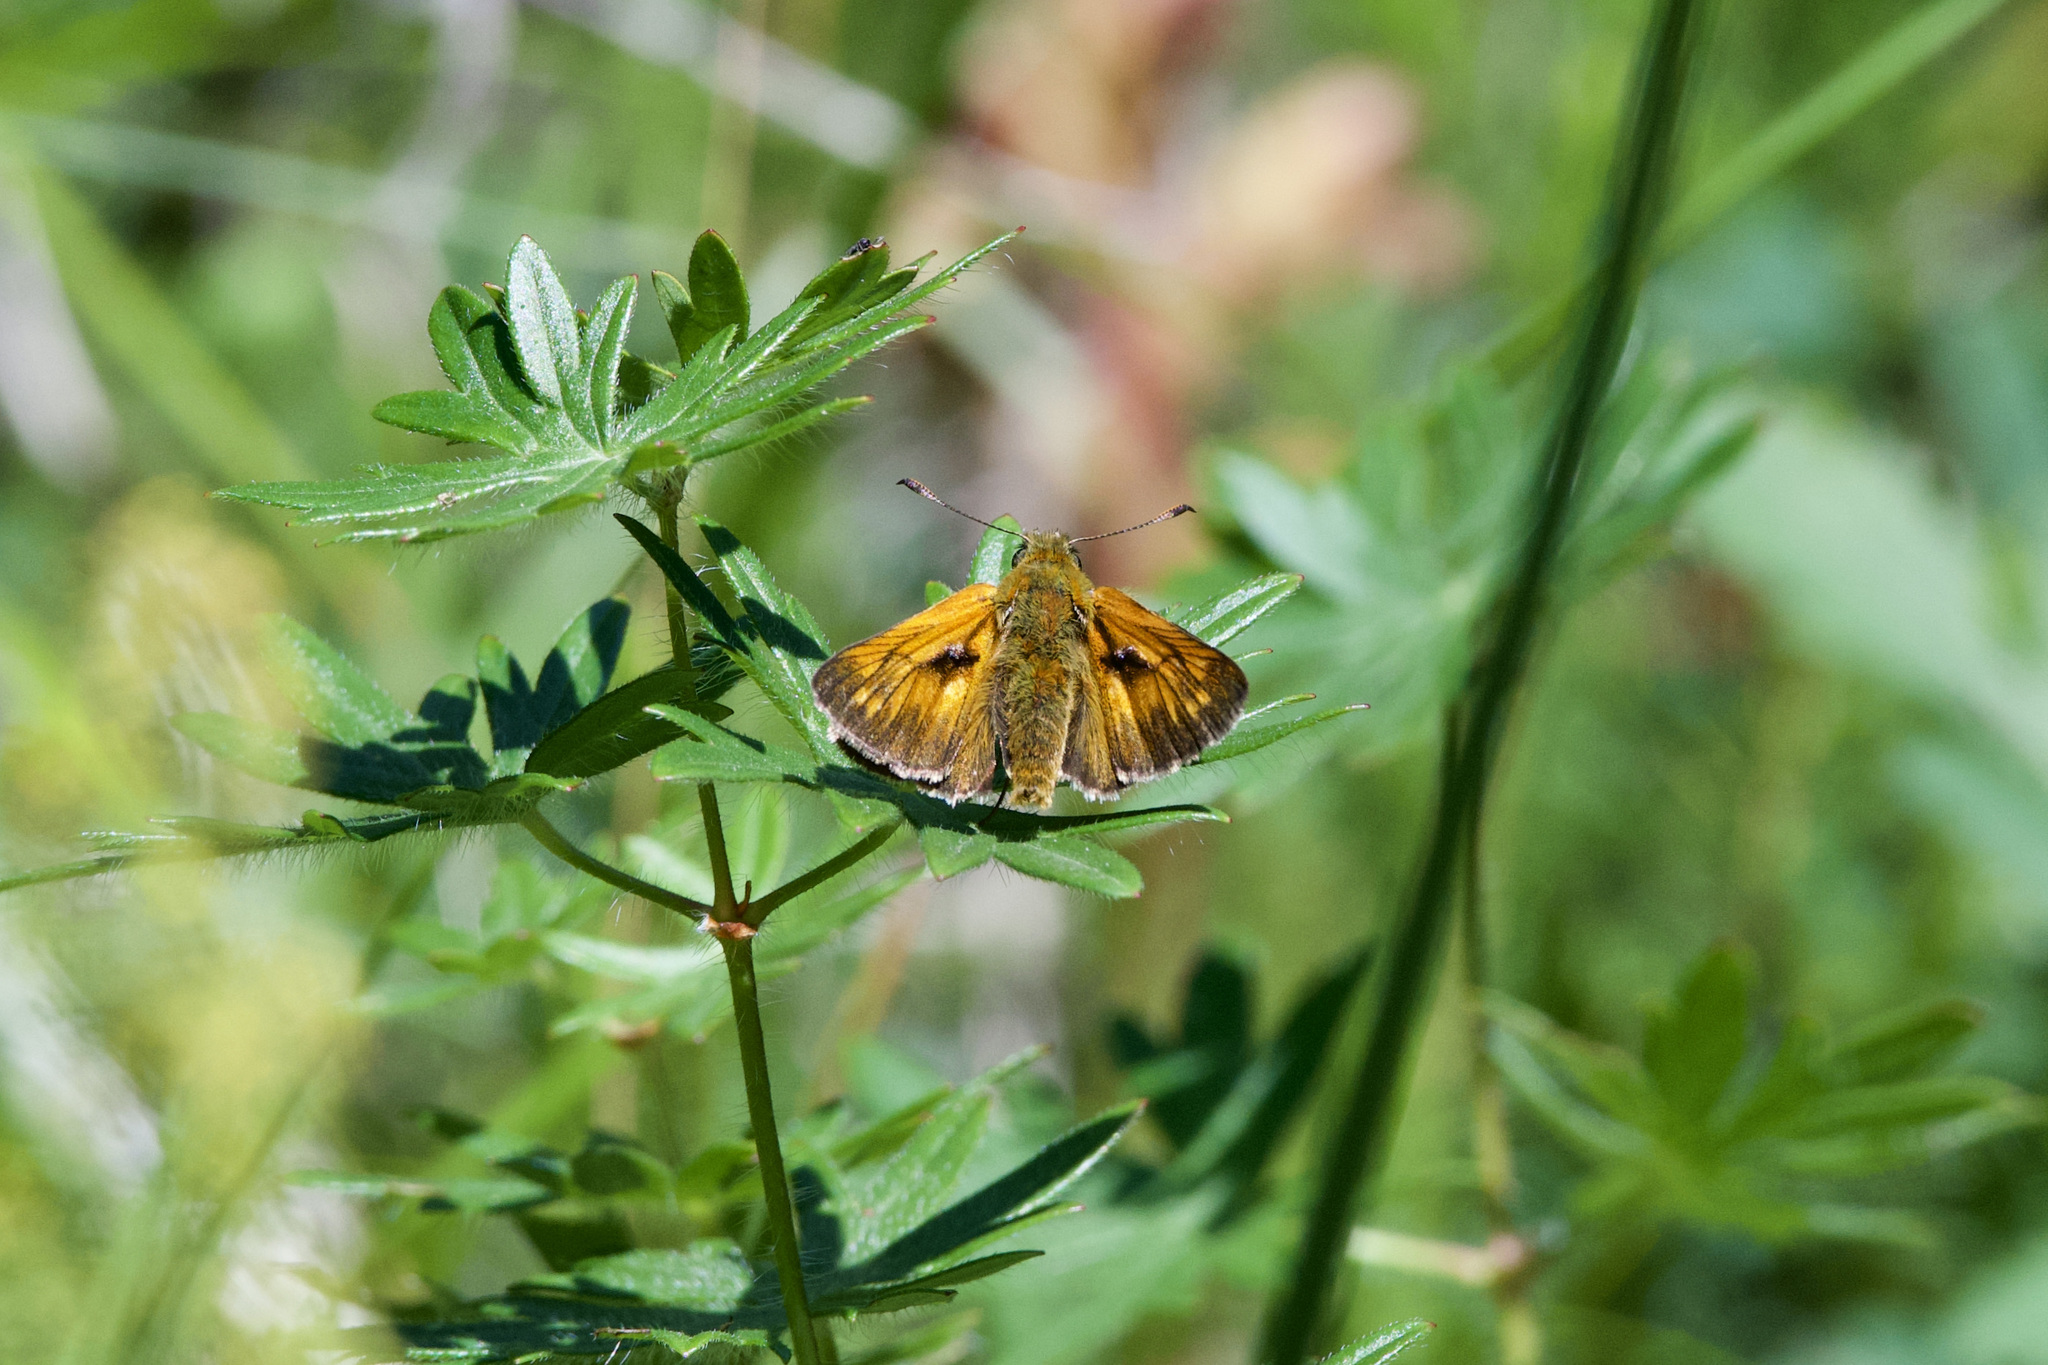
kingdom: Animalia
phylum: Arthropoda
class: Insecta
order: Lepidoptera
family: Hesperiidae
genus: Ochlodes
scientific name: Ochlodes venata
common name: Large skipper
